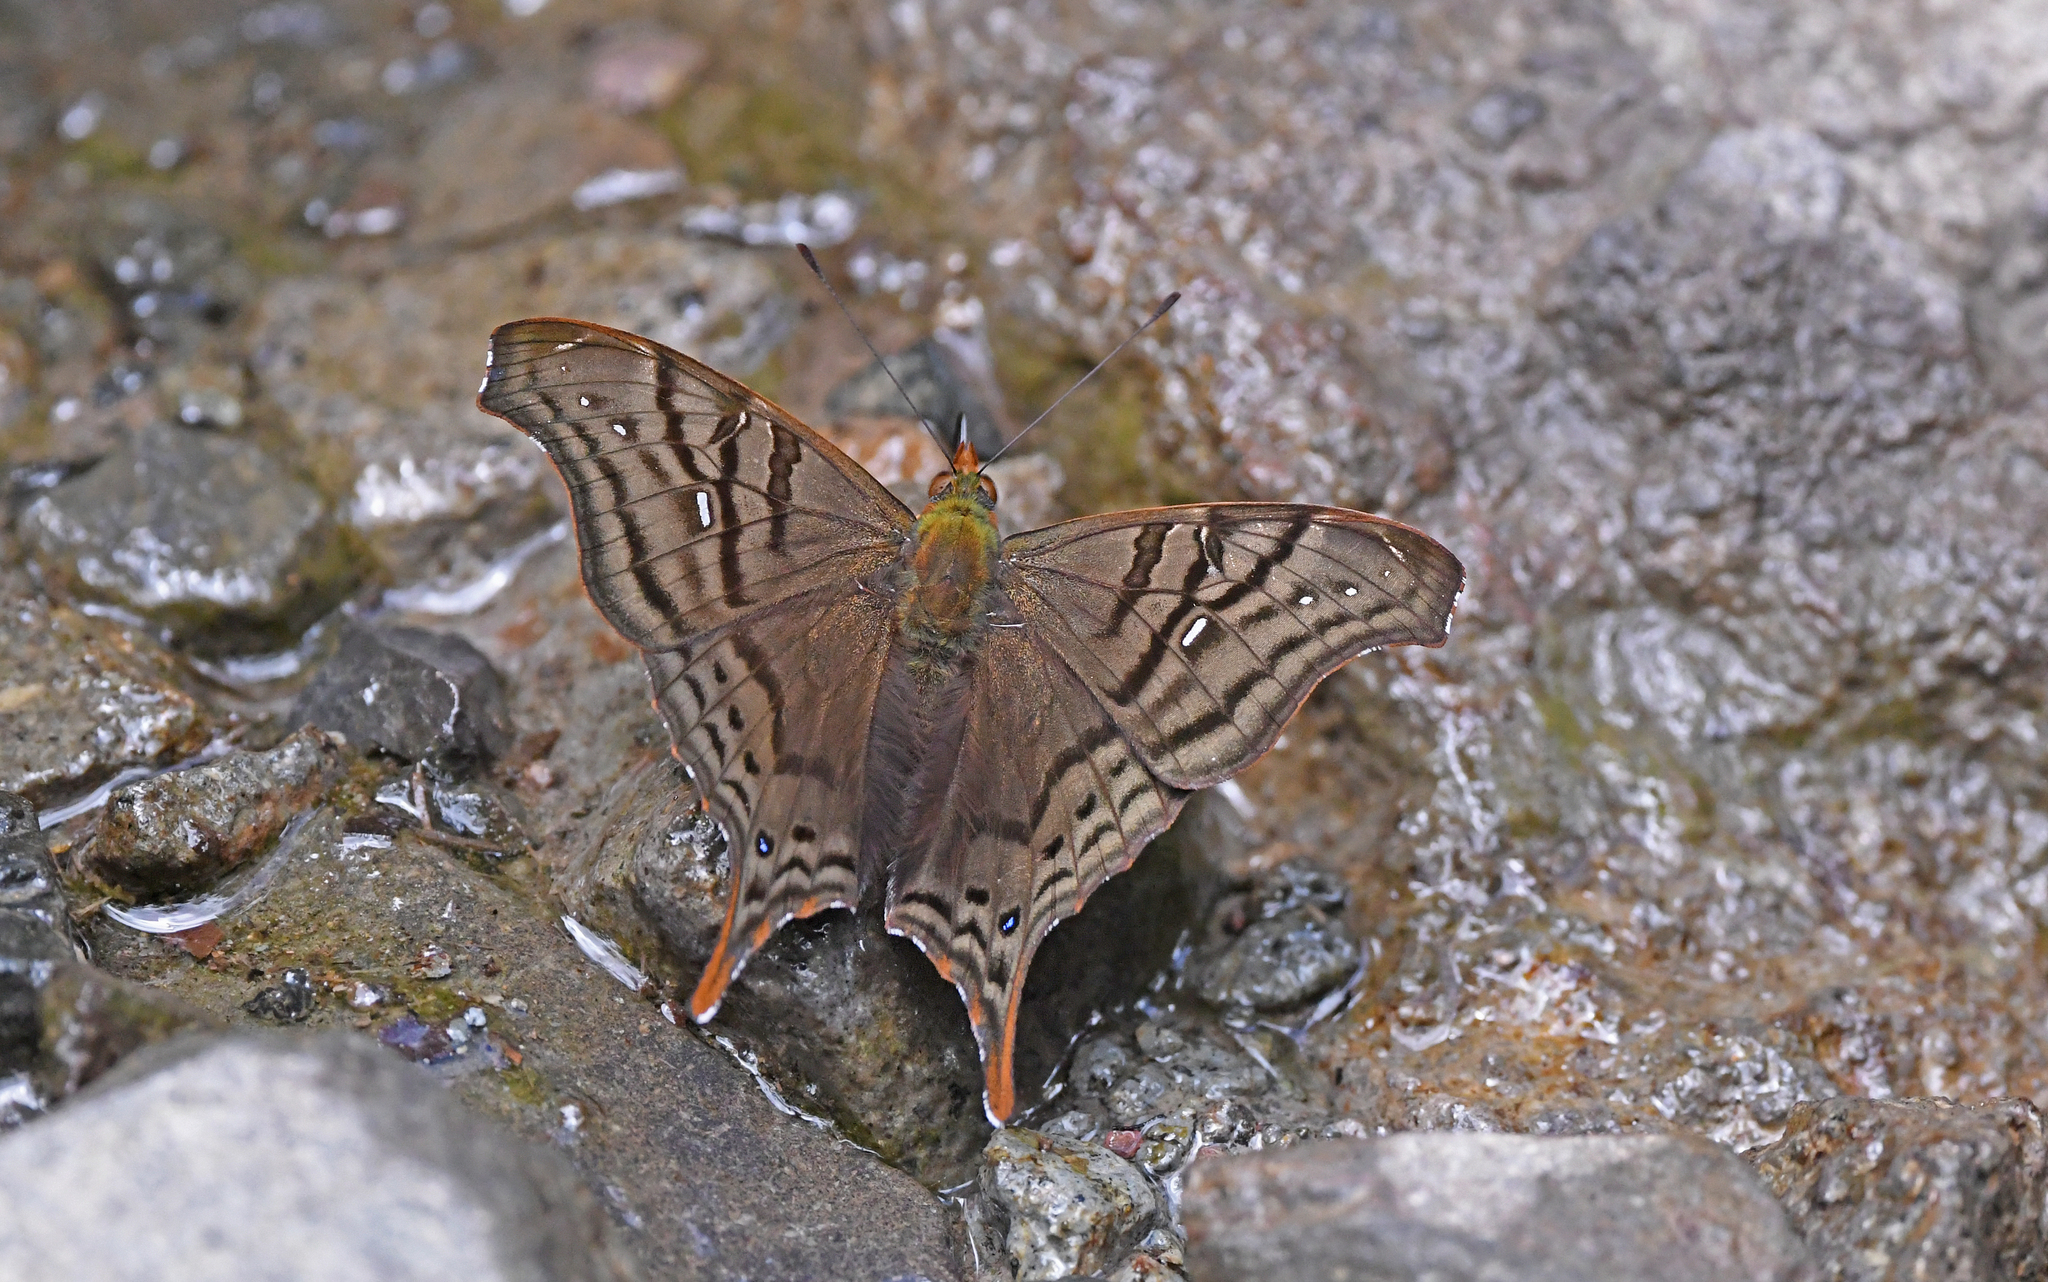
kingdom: Animalia
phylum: Arthropoda
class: Insecta
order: Lepidoptera
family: Nymphalidae
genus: Hypanartia
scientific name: Hypanartia dione
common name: Banded mapwing
